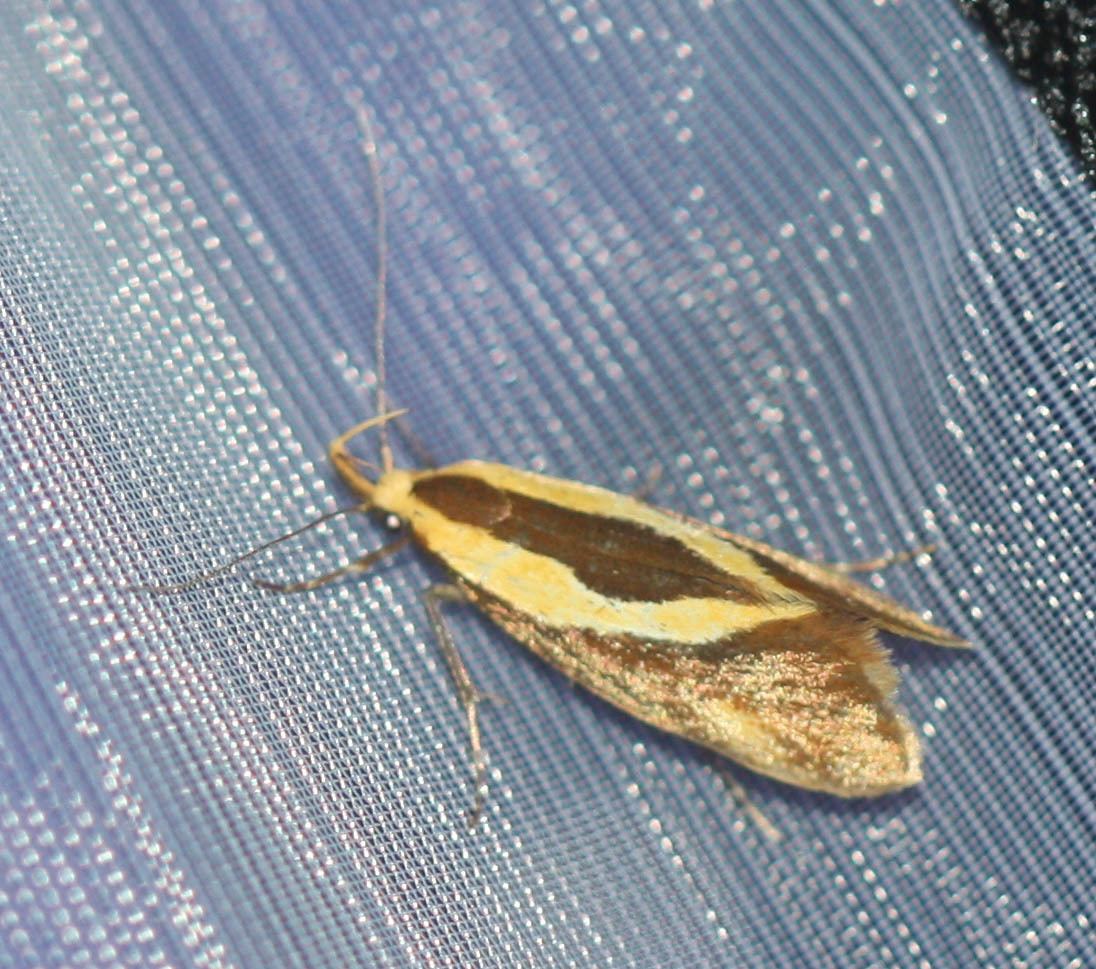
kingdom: Animalia
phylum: Arthropoda
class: Insecta
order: Lepidoptera
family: Oecophoridae
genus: Harpella
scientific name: Harpella forficella
